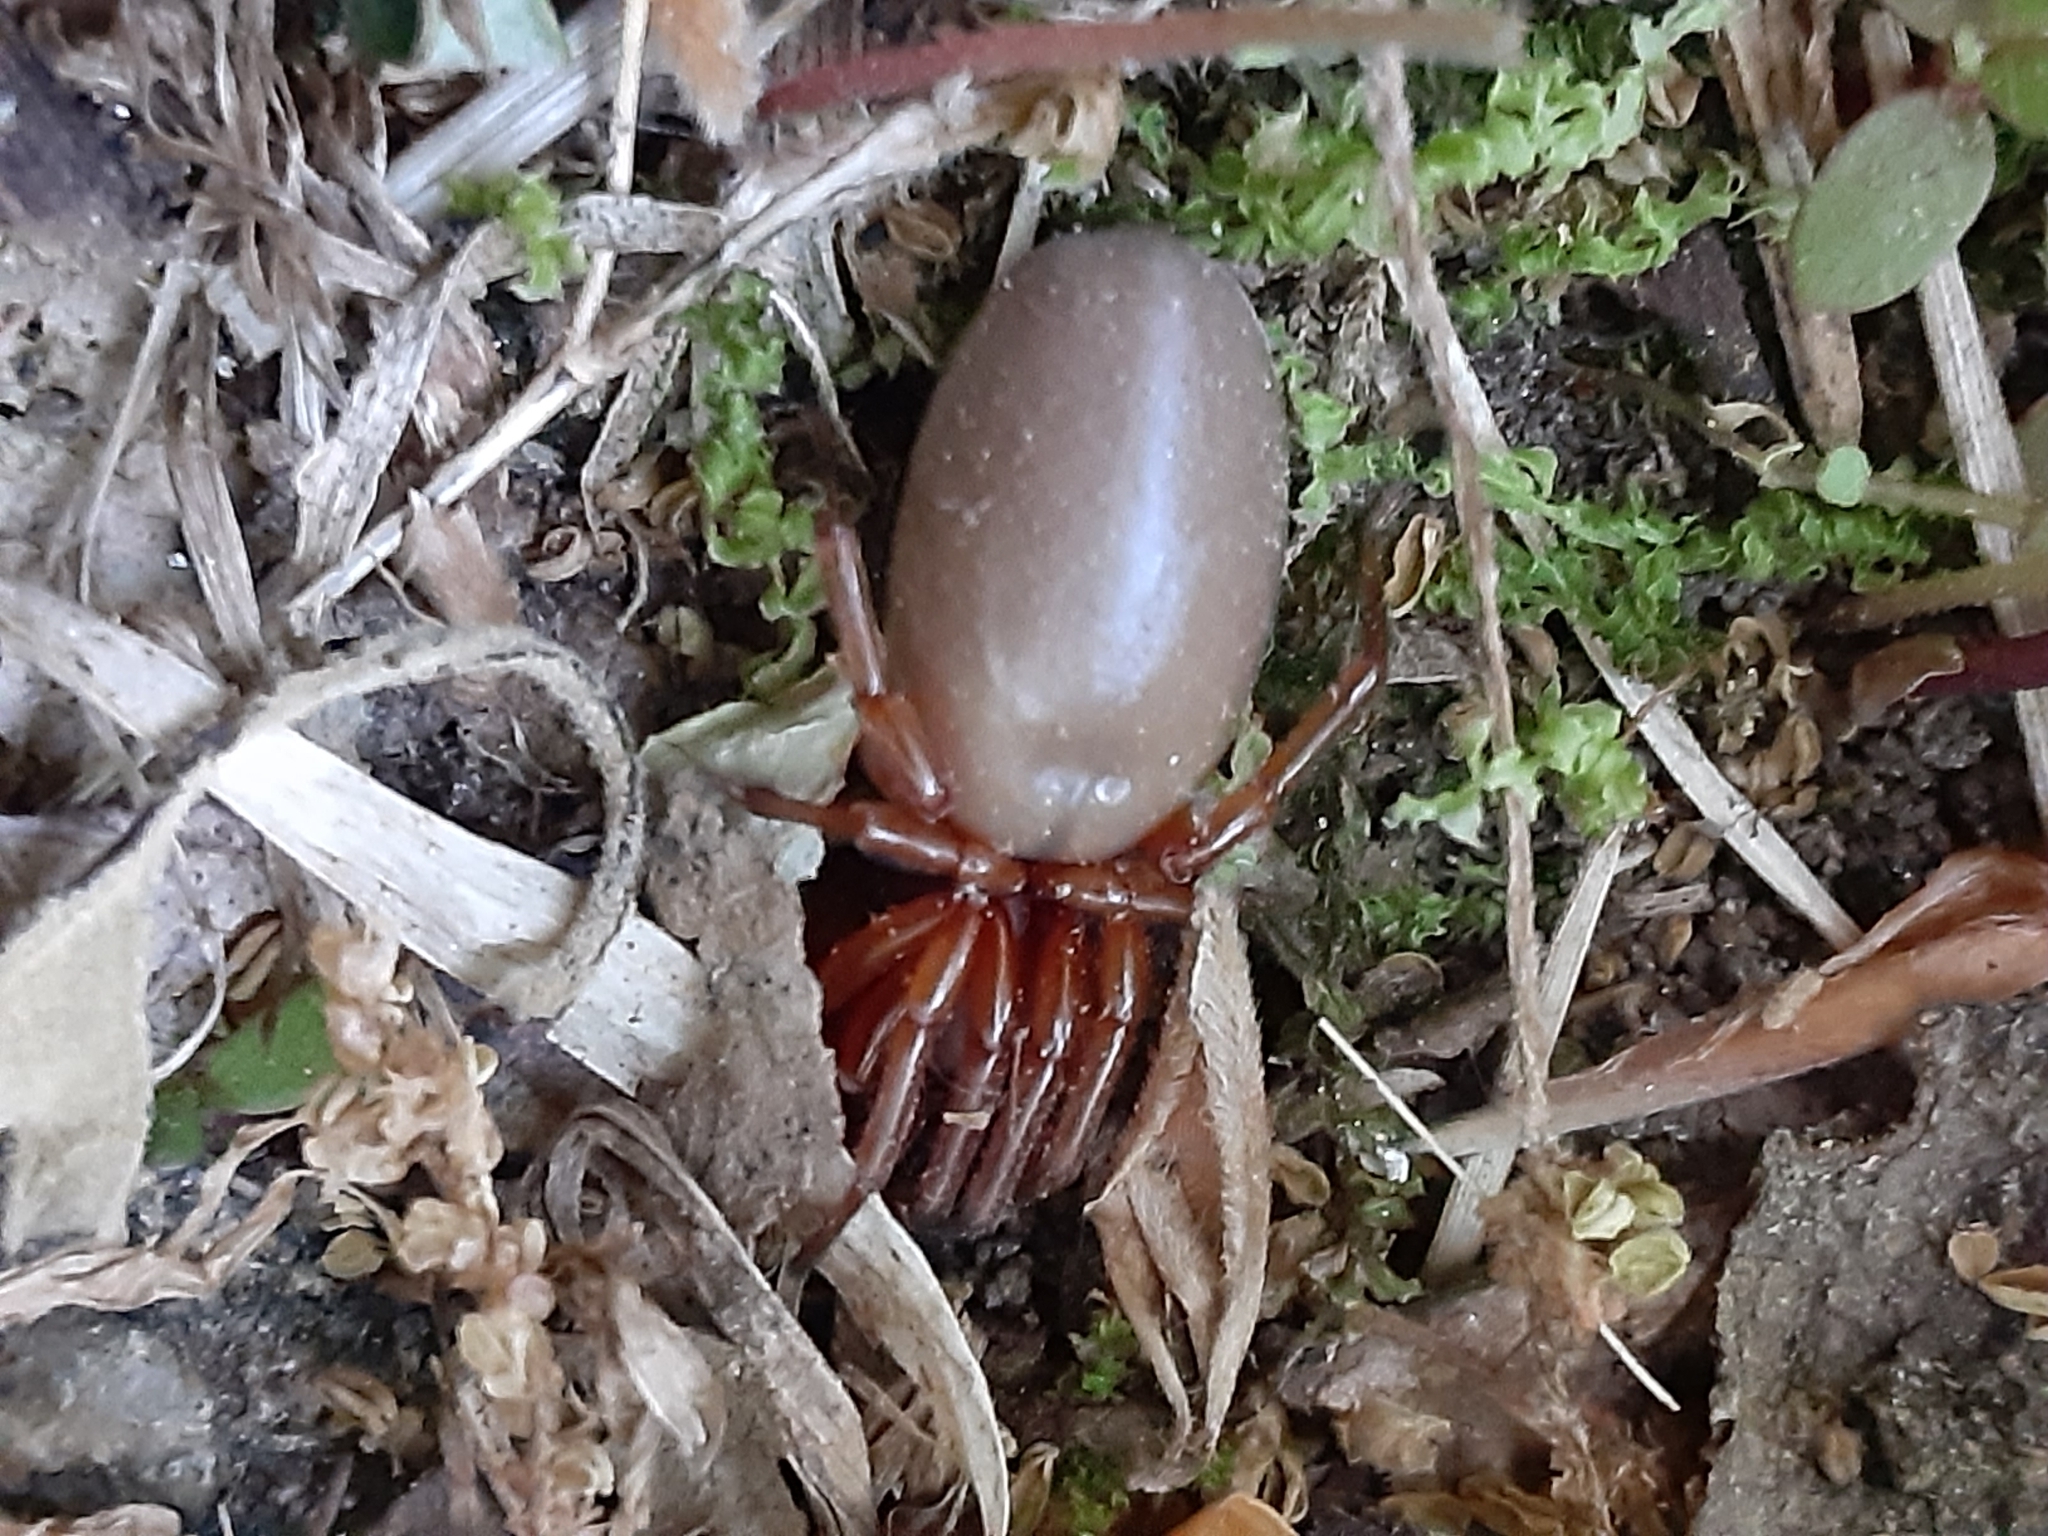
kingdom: Animalia
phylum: Arthropoda
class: Arachnida
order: Araneae
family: Dysderidae
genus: Dysdera
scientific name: Dysdera crocata
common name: Woodlouse spider
